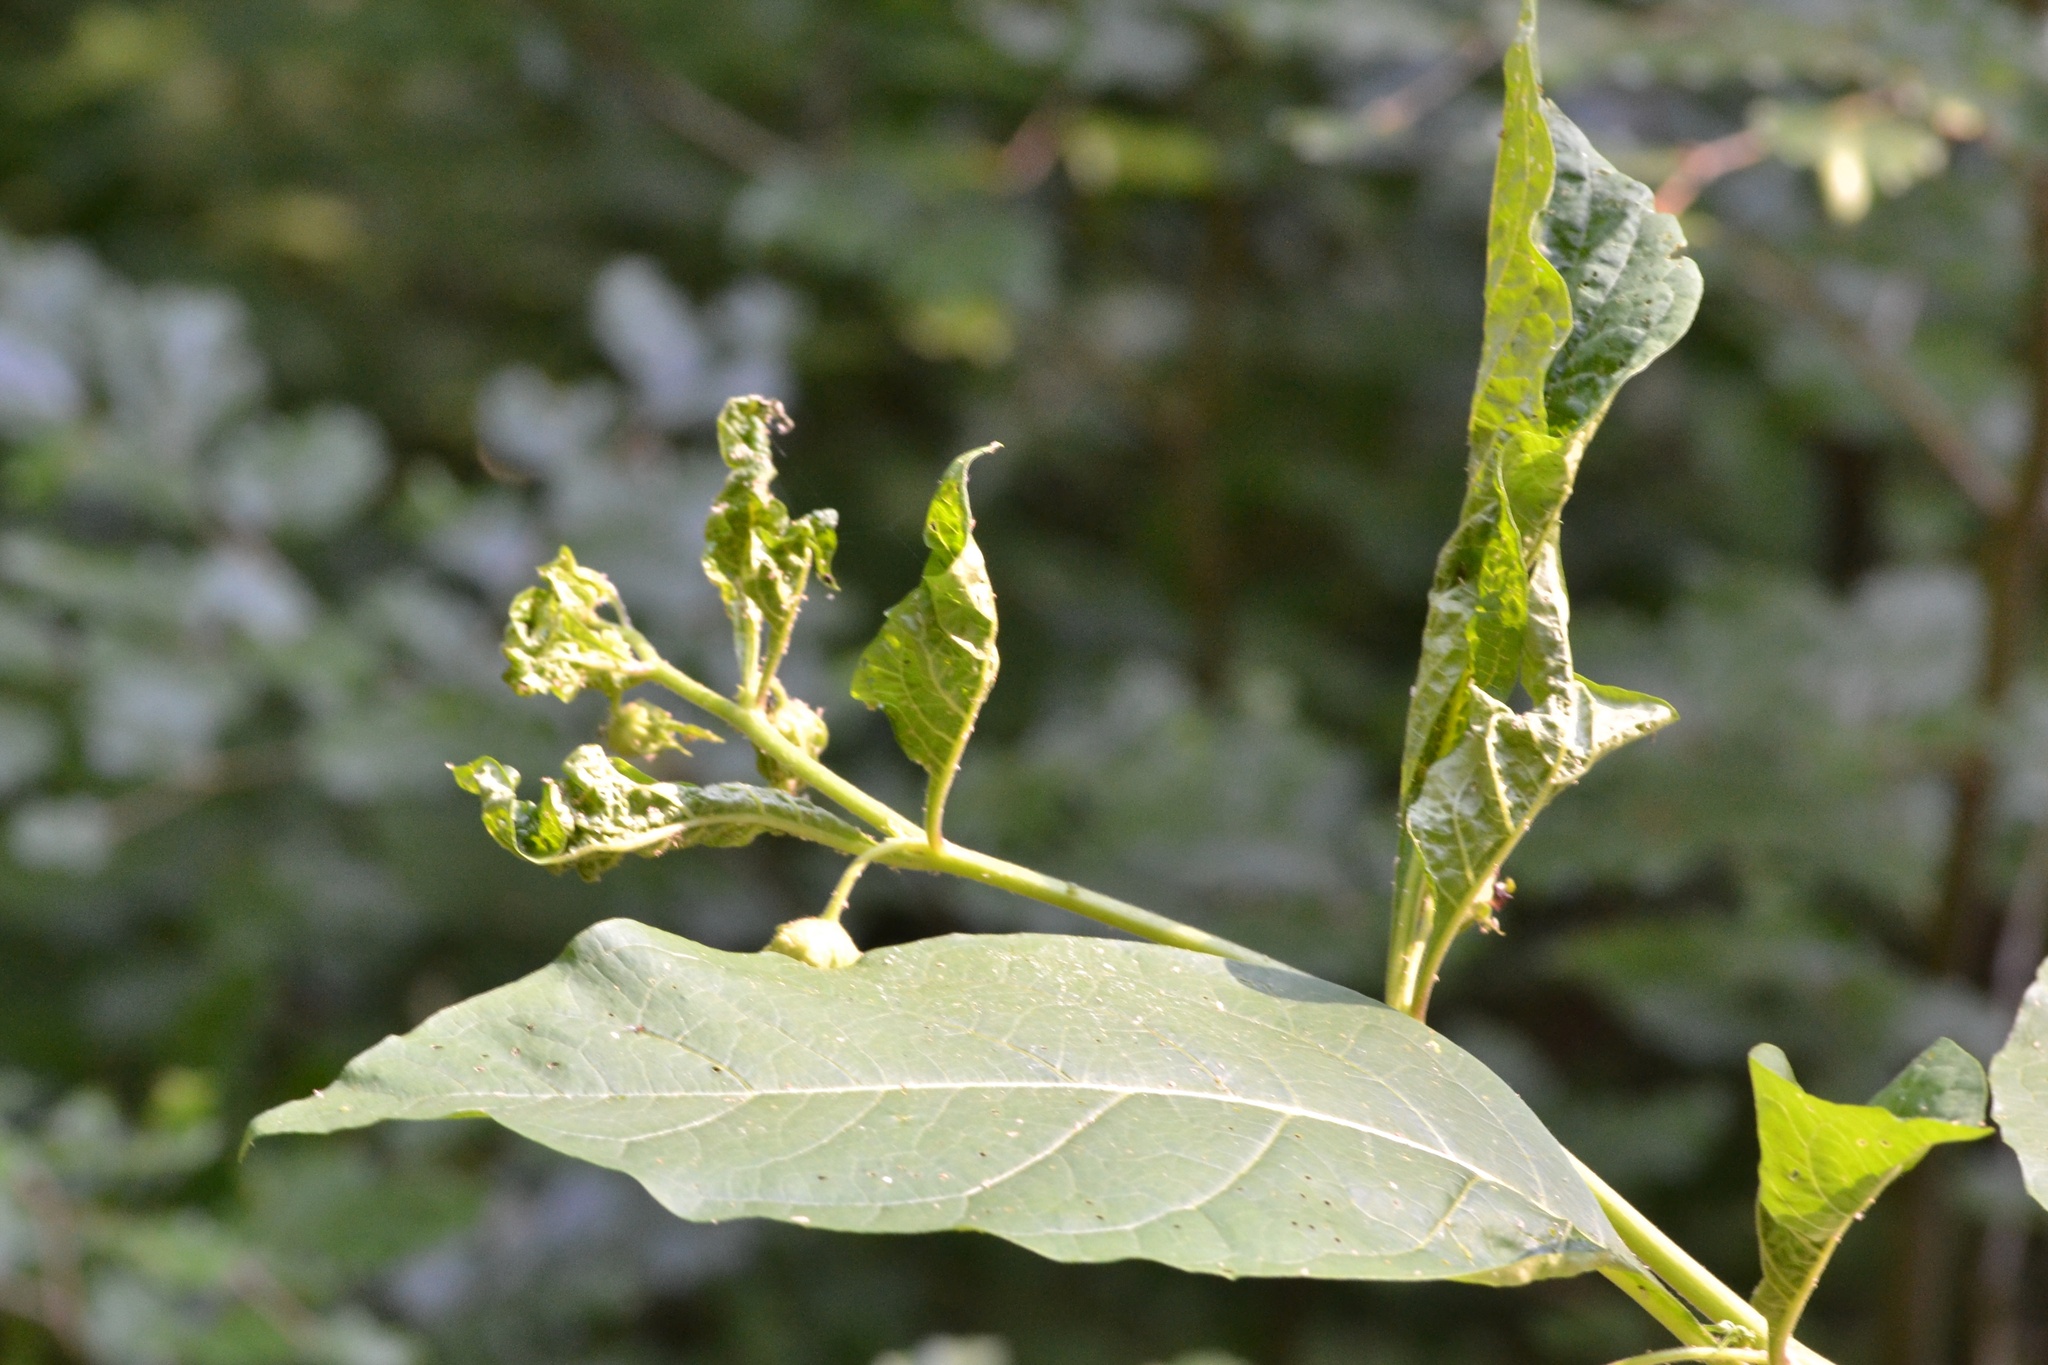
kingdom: Plantae
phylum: Tracheophyta
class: Magnoliopsida
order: Solanales
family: Solanaceae
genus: Atropa
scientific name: Atropa belladonna
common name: Deadly nightshade
